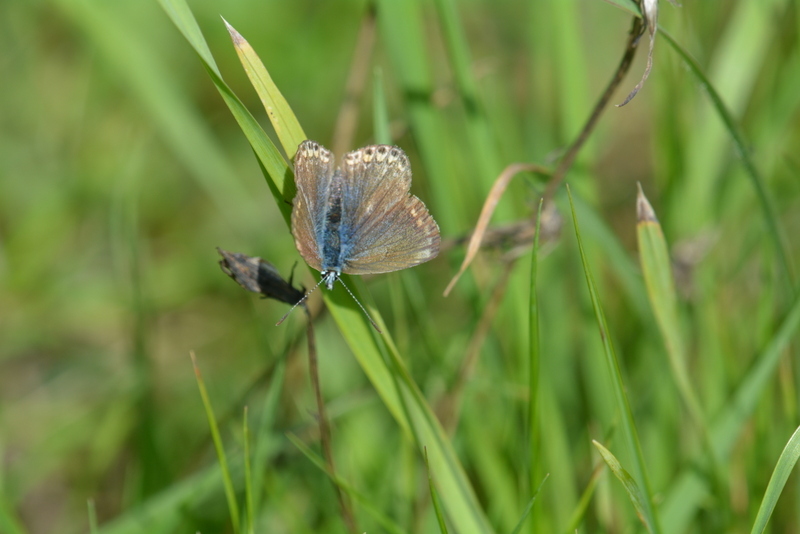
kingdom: Animalia
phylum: Arthropoda
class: Insecta
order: Lepidoptera
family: Lycaenidae
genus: Polyommatus
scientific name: Polyommatus icarus
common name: Common blue
